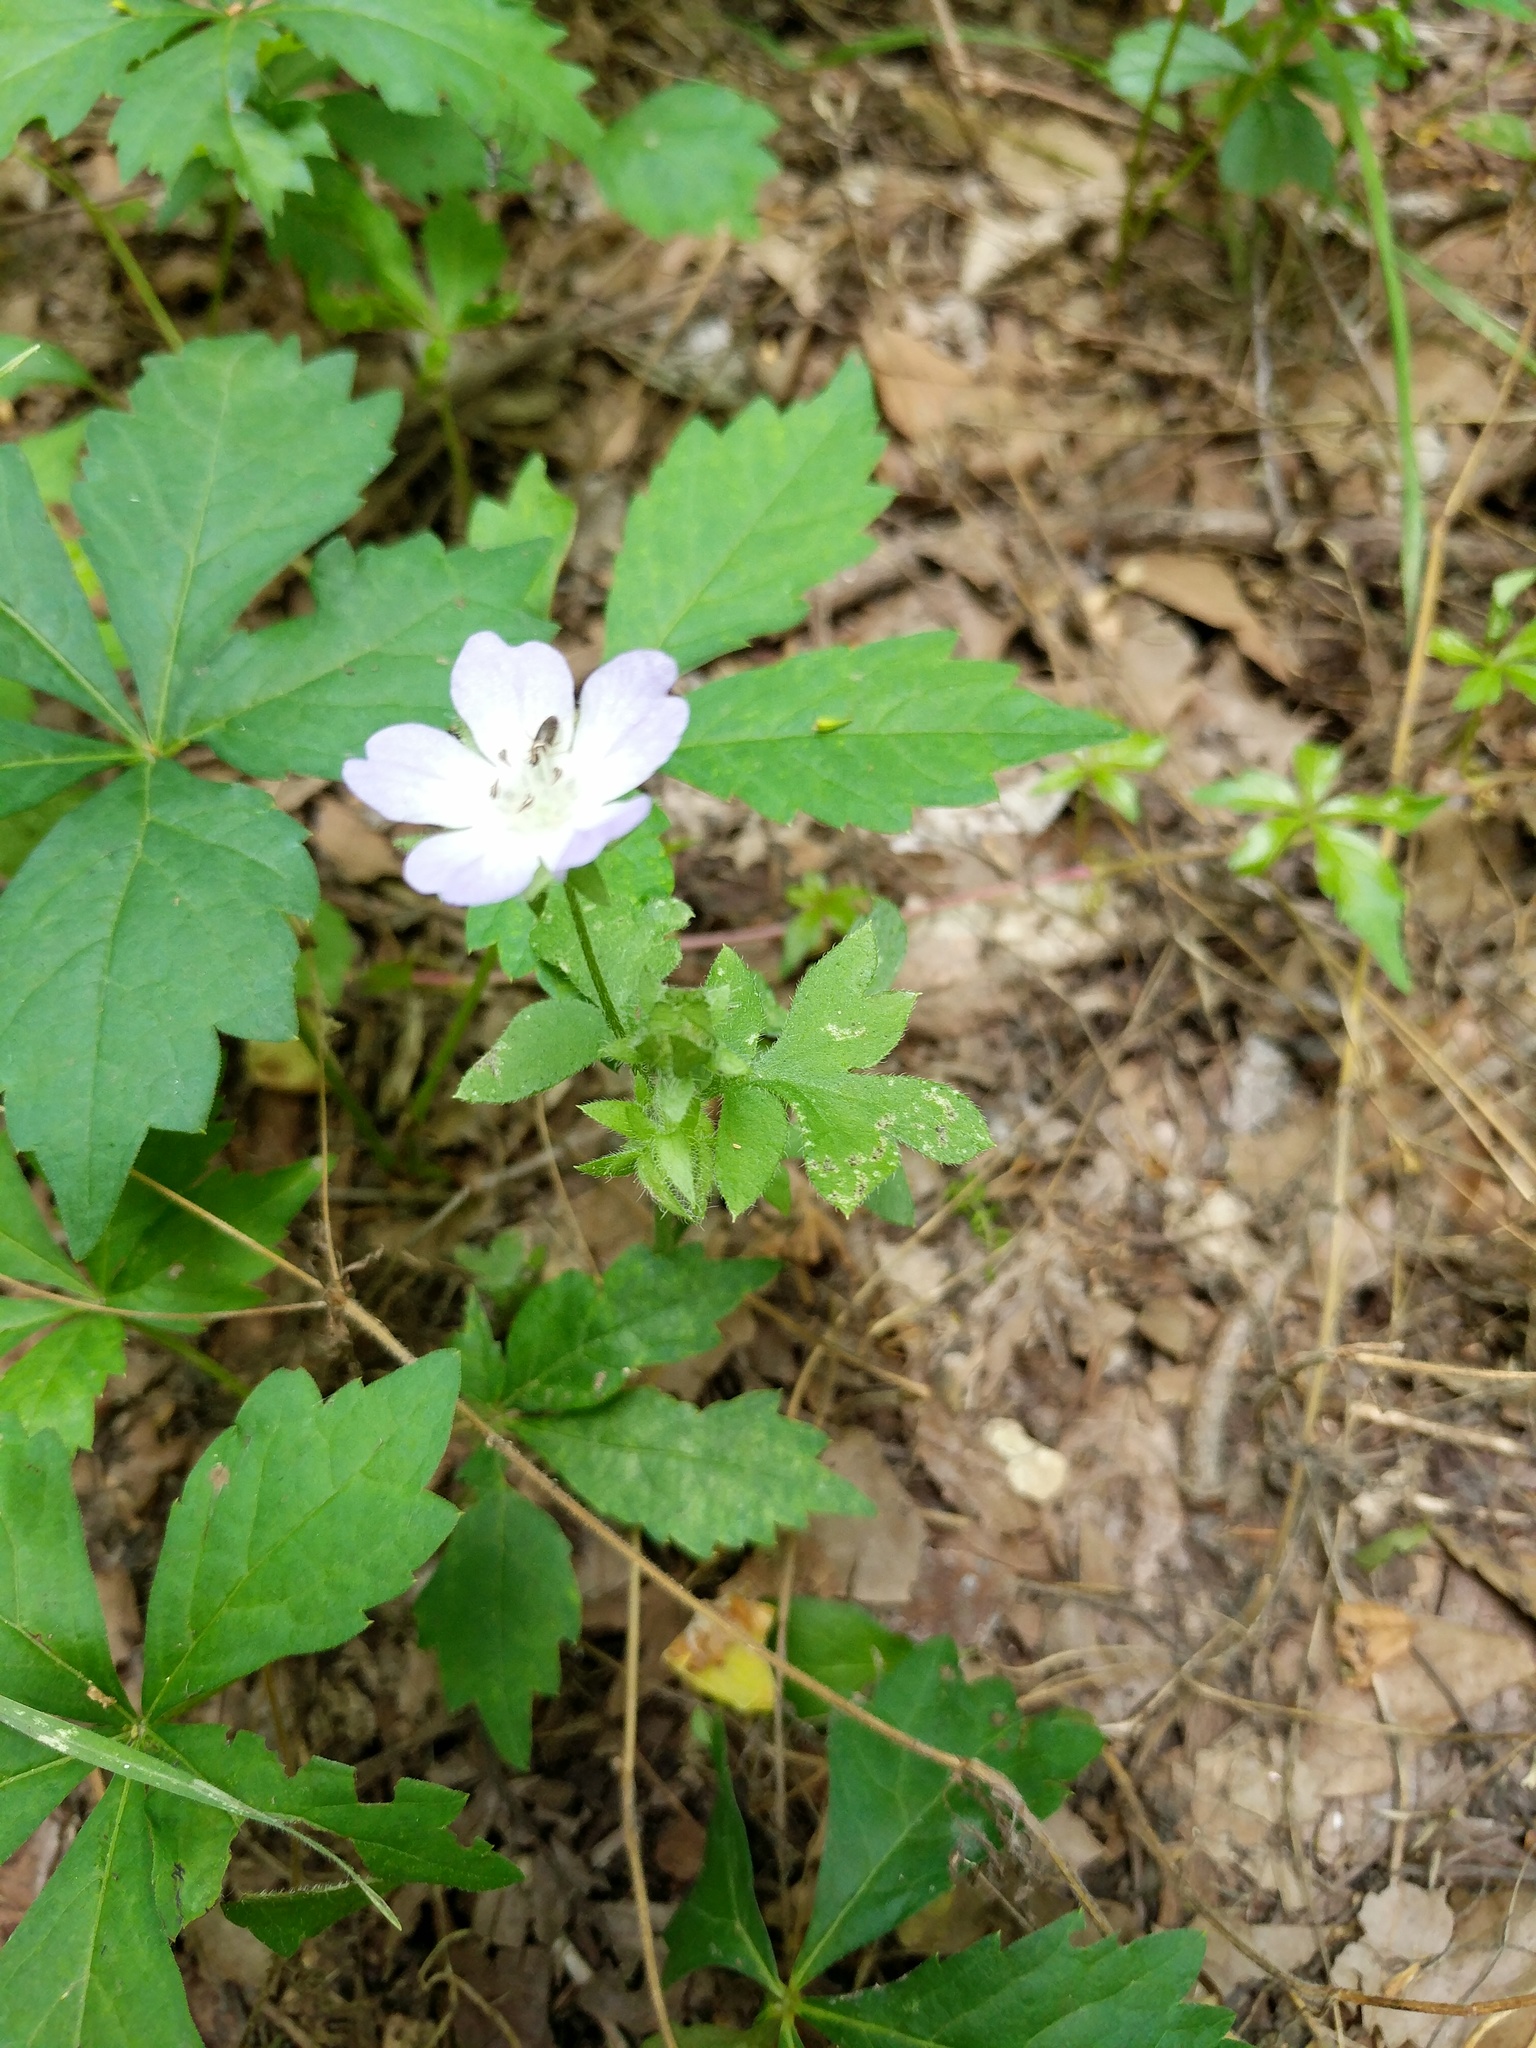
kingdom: Plantae
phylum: Tracheophyta
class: Magnoliopsida
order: Boraginales
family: Hydrophyllaceae
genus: Nemophila
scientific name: Nemophila phacelioides
